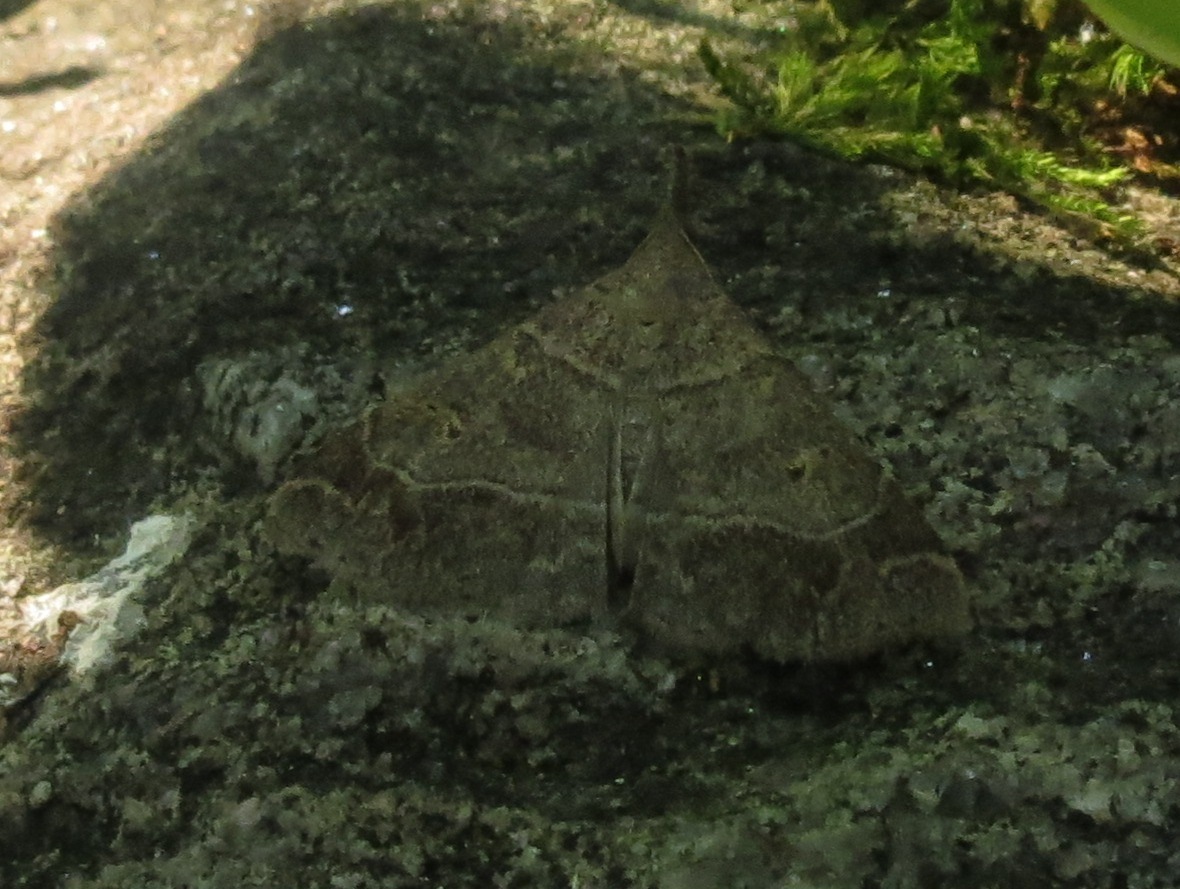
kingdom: Animalia
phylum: Arthropoda
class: Insecta
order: Lepidoptera
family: Erebidae
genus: Renia
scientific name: Renia flavipunctalis
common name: Yellow-spotted renia moth
